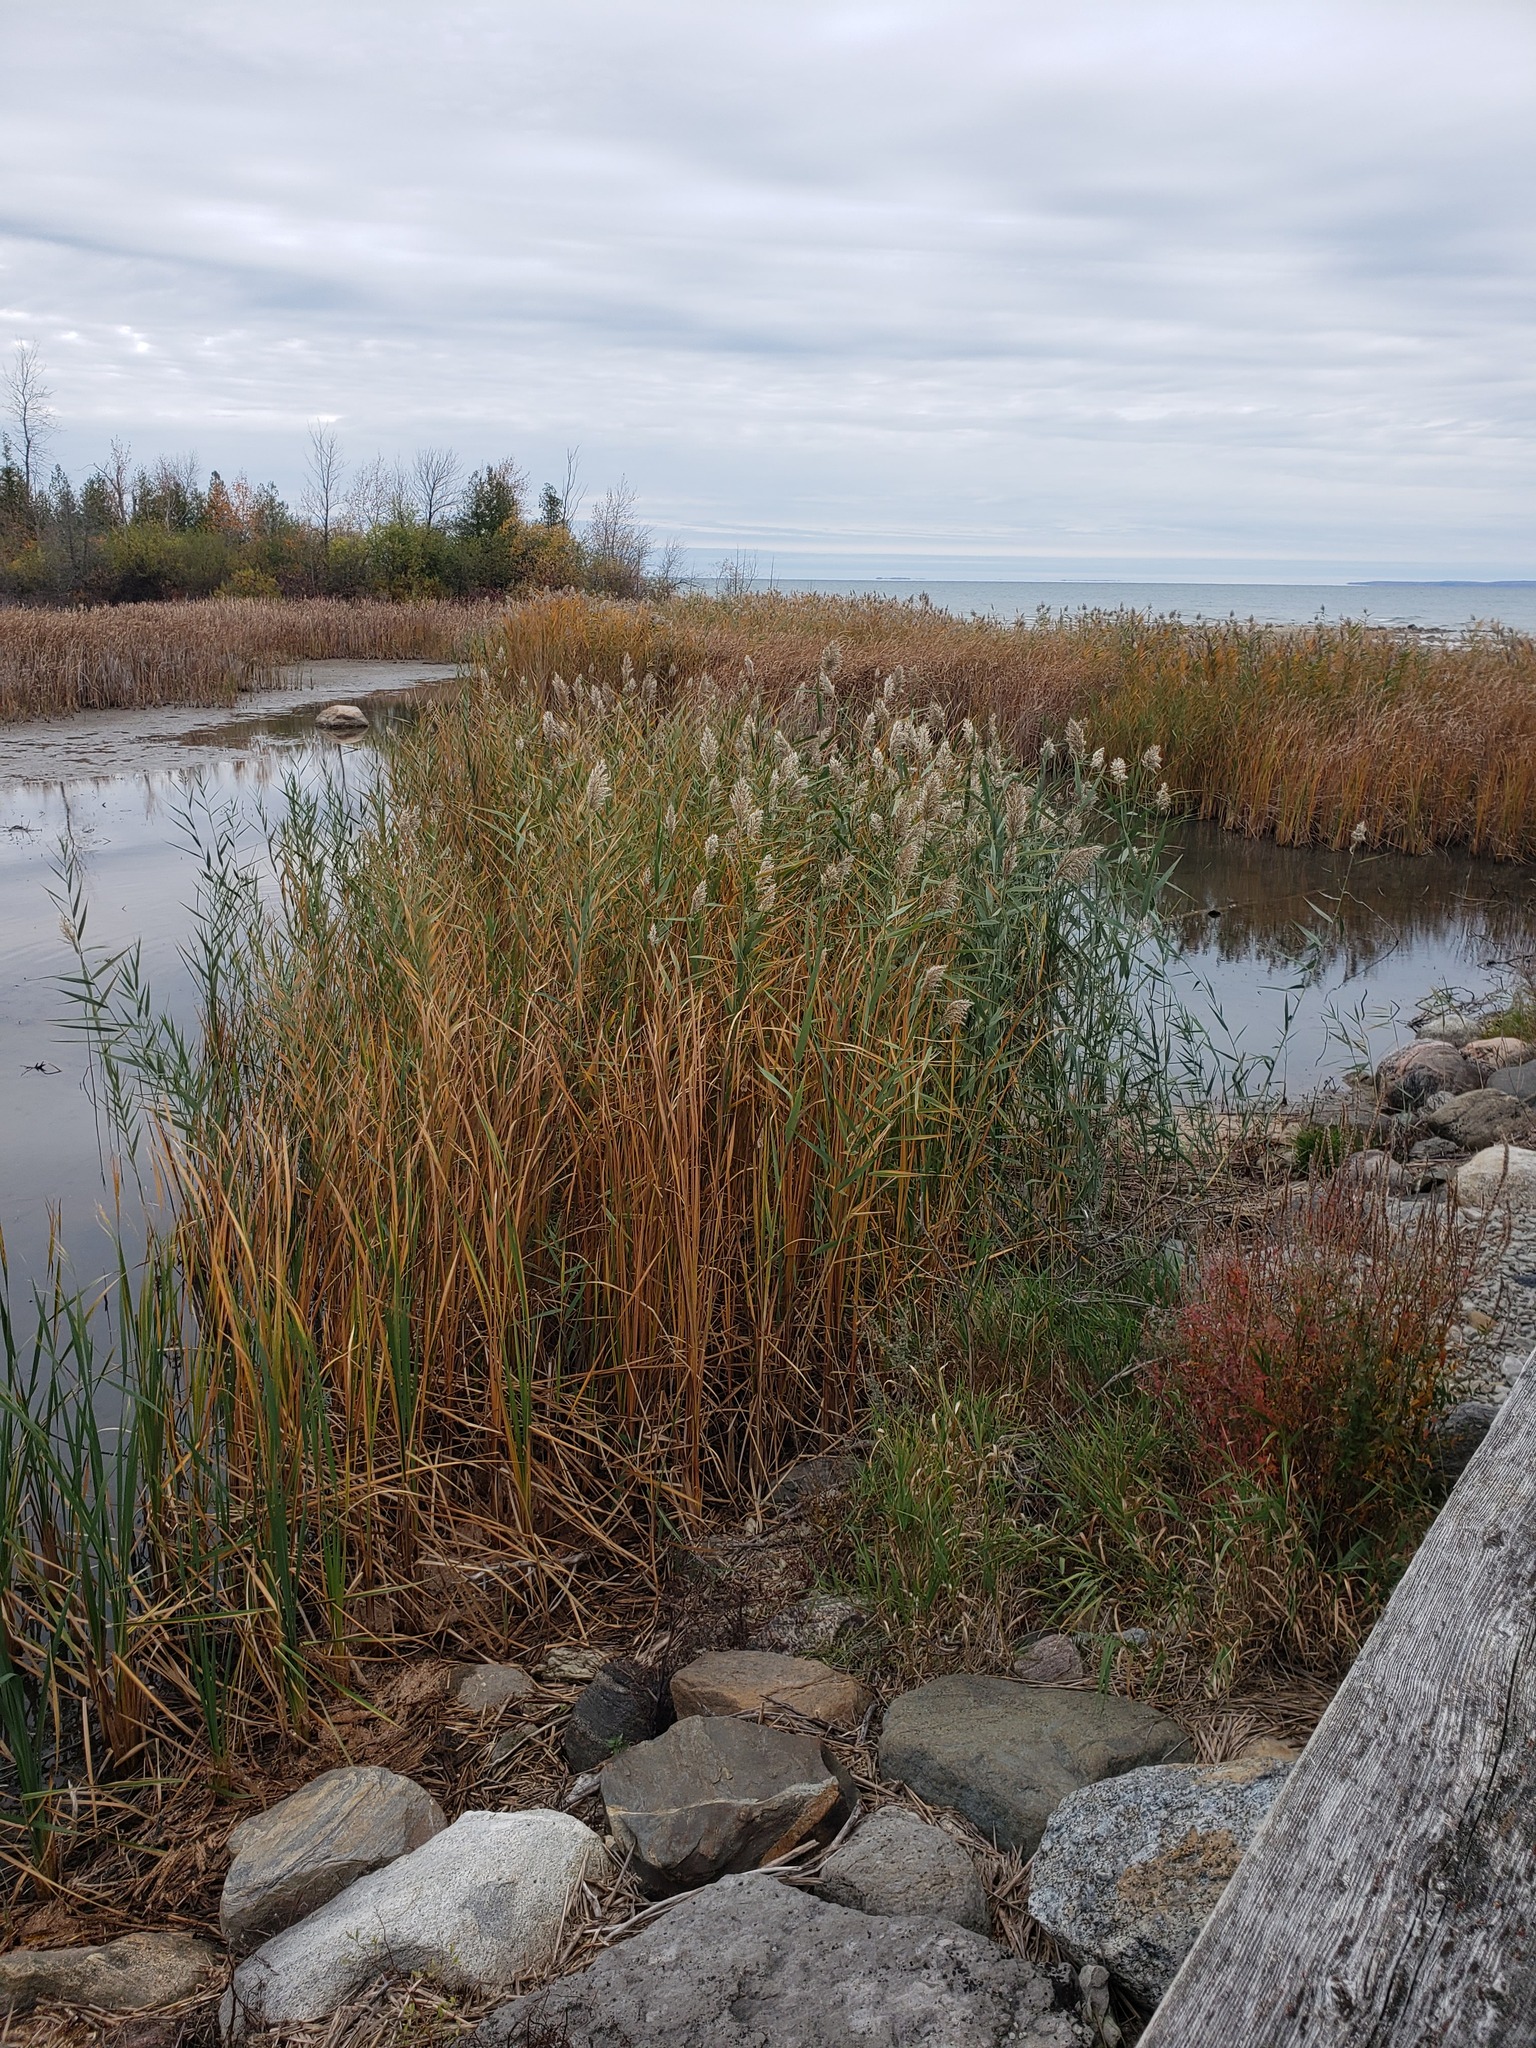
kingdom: Plantae
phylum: Tracheophyta
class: Liliopsida
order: Poales
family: Poaceae
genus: Phragmites
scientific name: Phragmites australis
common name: Common reed
